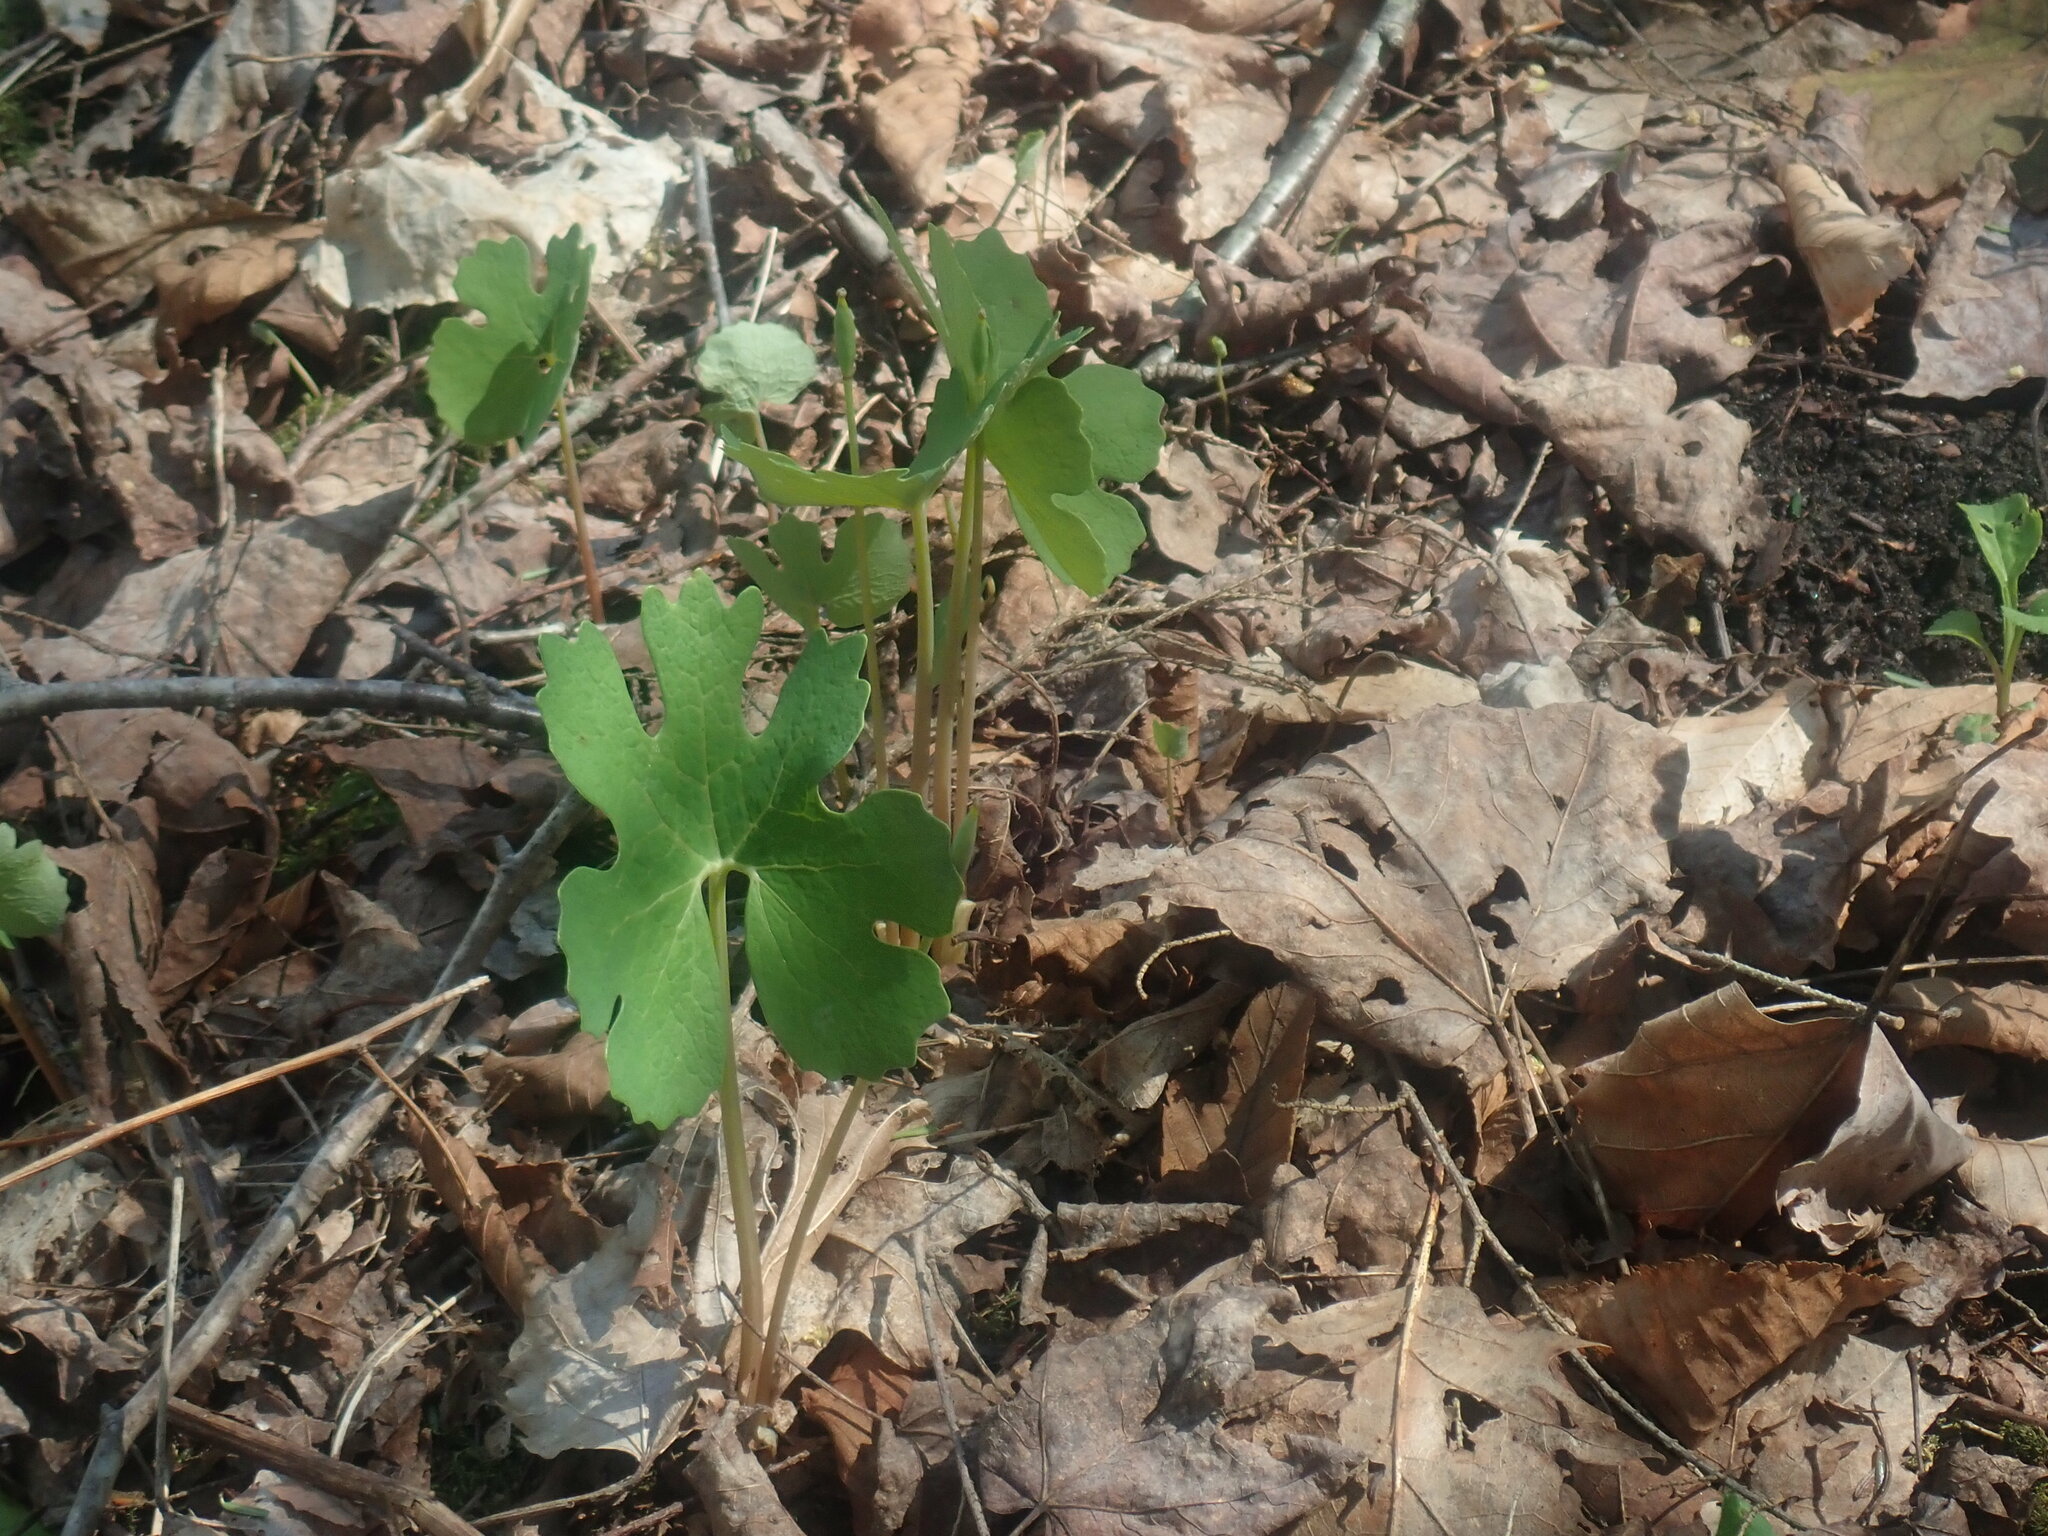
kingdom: Plantae
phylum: Tracheophyta
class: Magnoliopsida
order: Ranunculales
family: Papaveraceae
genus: Sanguinaria
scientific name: Sanguinaria canadensis
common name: Bloodroot
